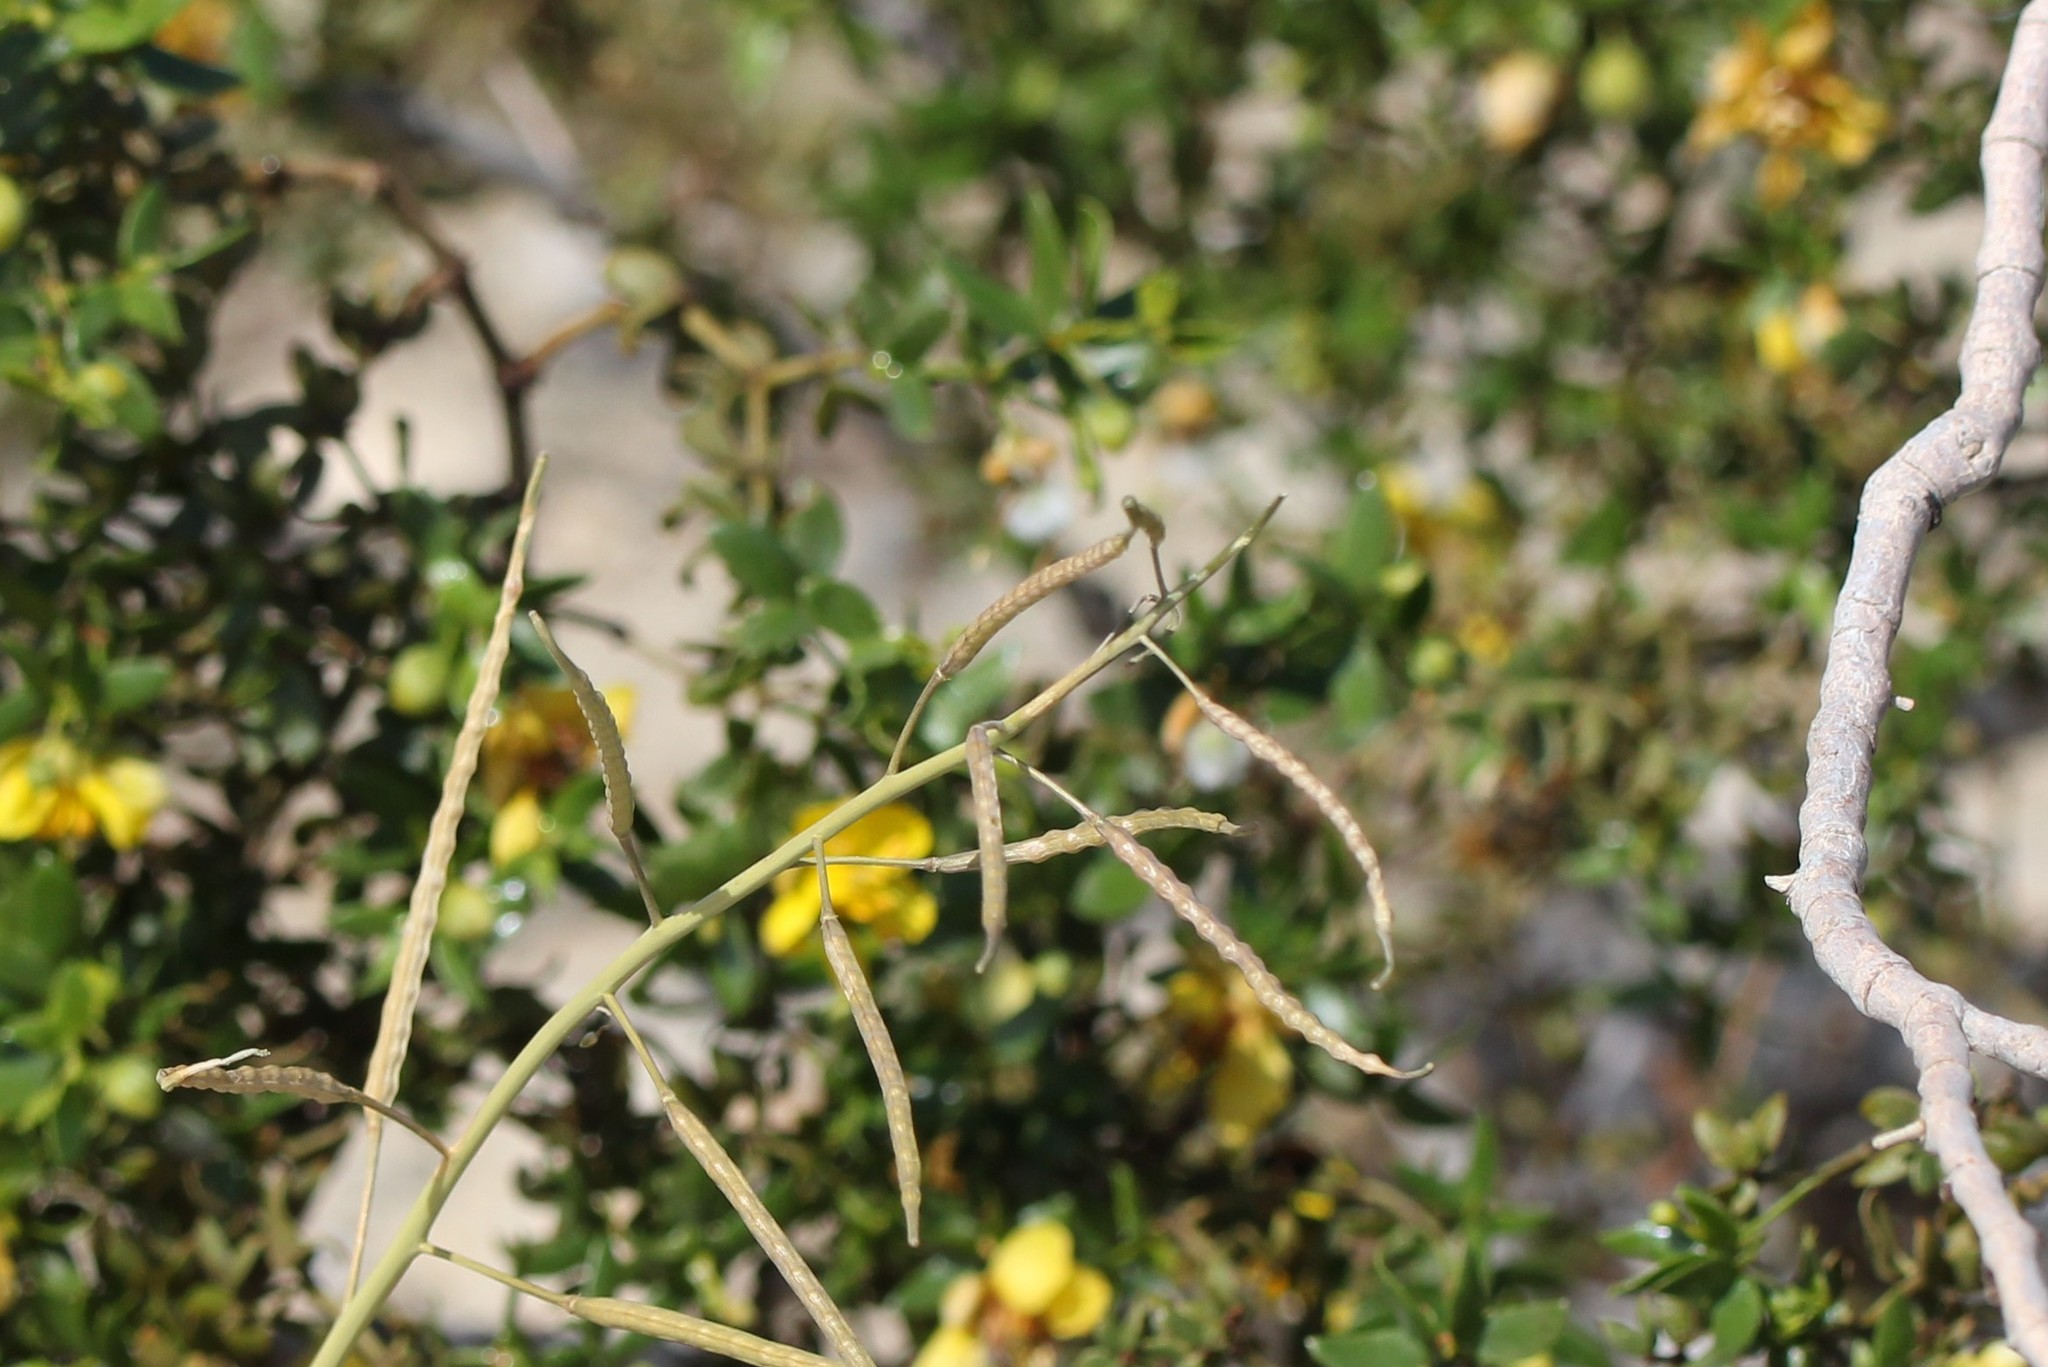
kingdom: Plantae
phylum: Tracheophyta
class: Magnoliopsida
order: Brassicales
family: Brassicaceae
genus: Brassica
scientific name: Brassica tournefortii
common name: Pale cabbage
